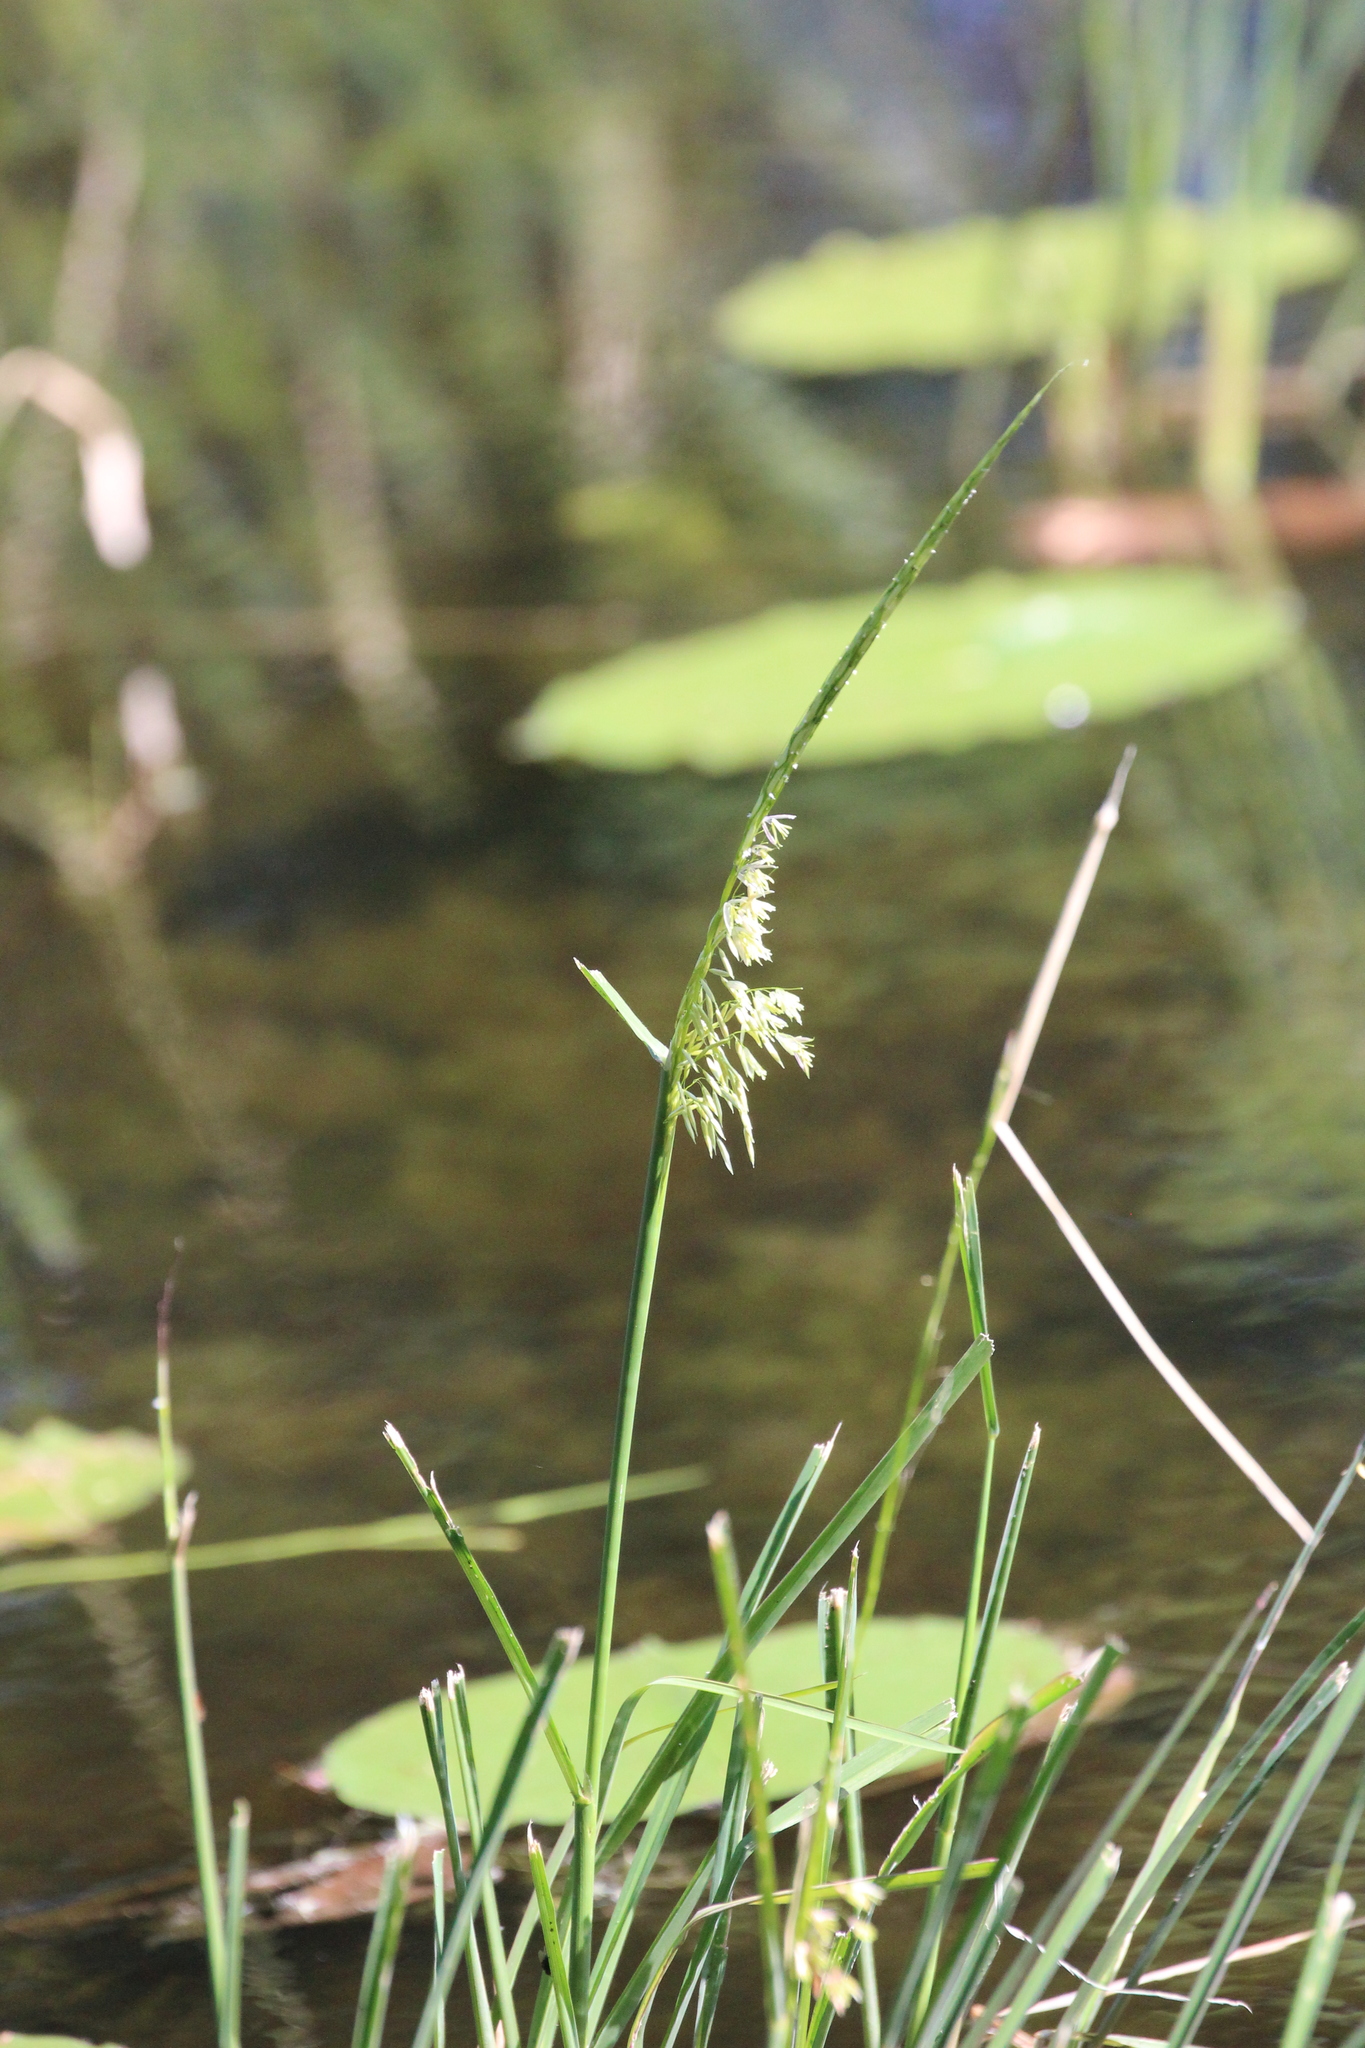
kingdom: Plantae
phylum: Tracheophyta
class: Liliopsida
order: Poales
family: Poaceae
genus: Zizania
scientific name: Zizania palustris
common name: Northern wild rice
